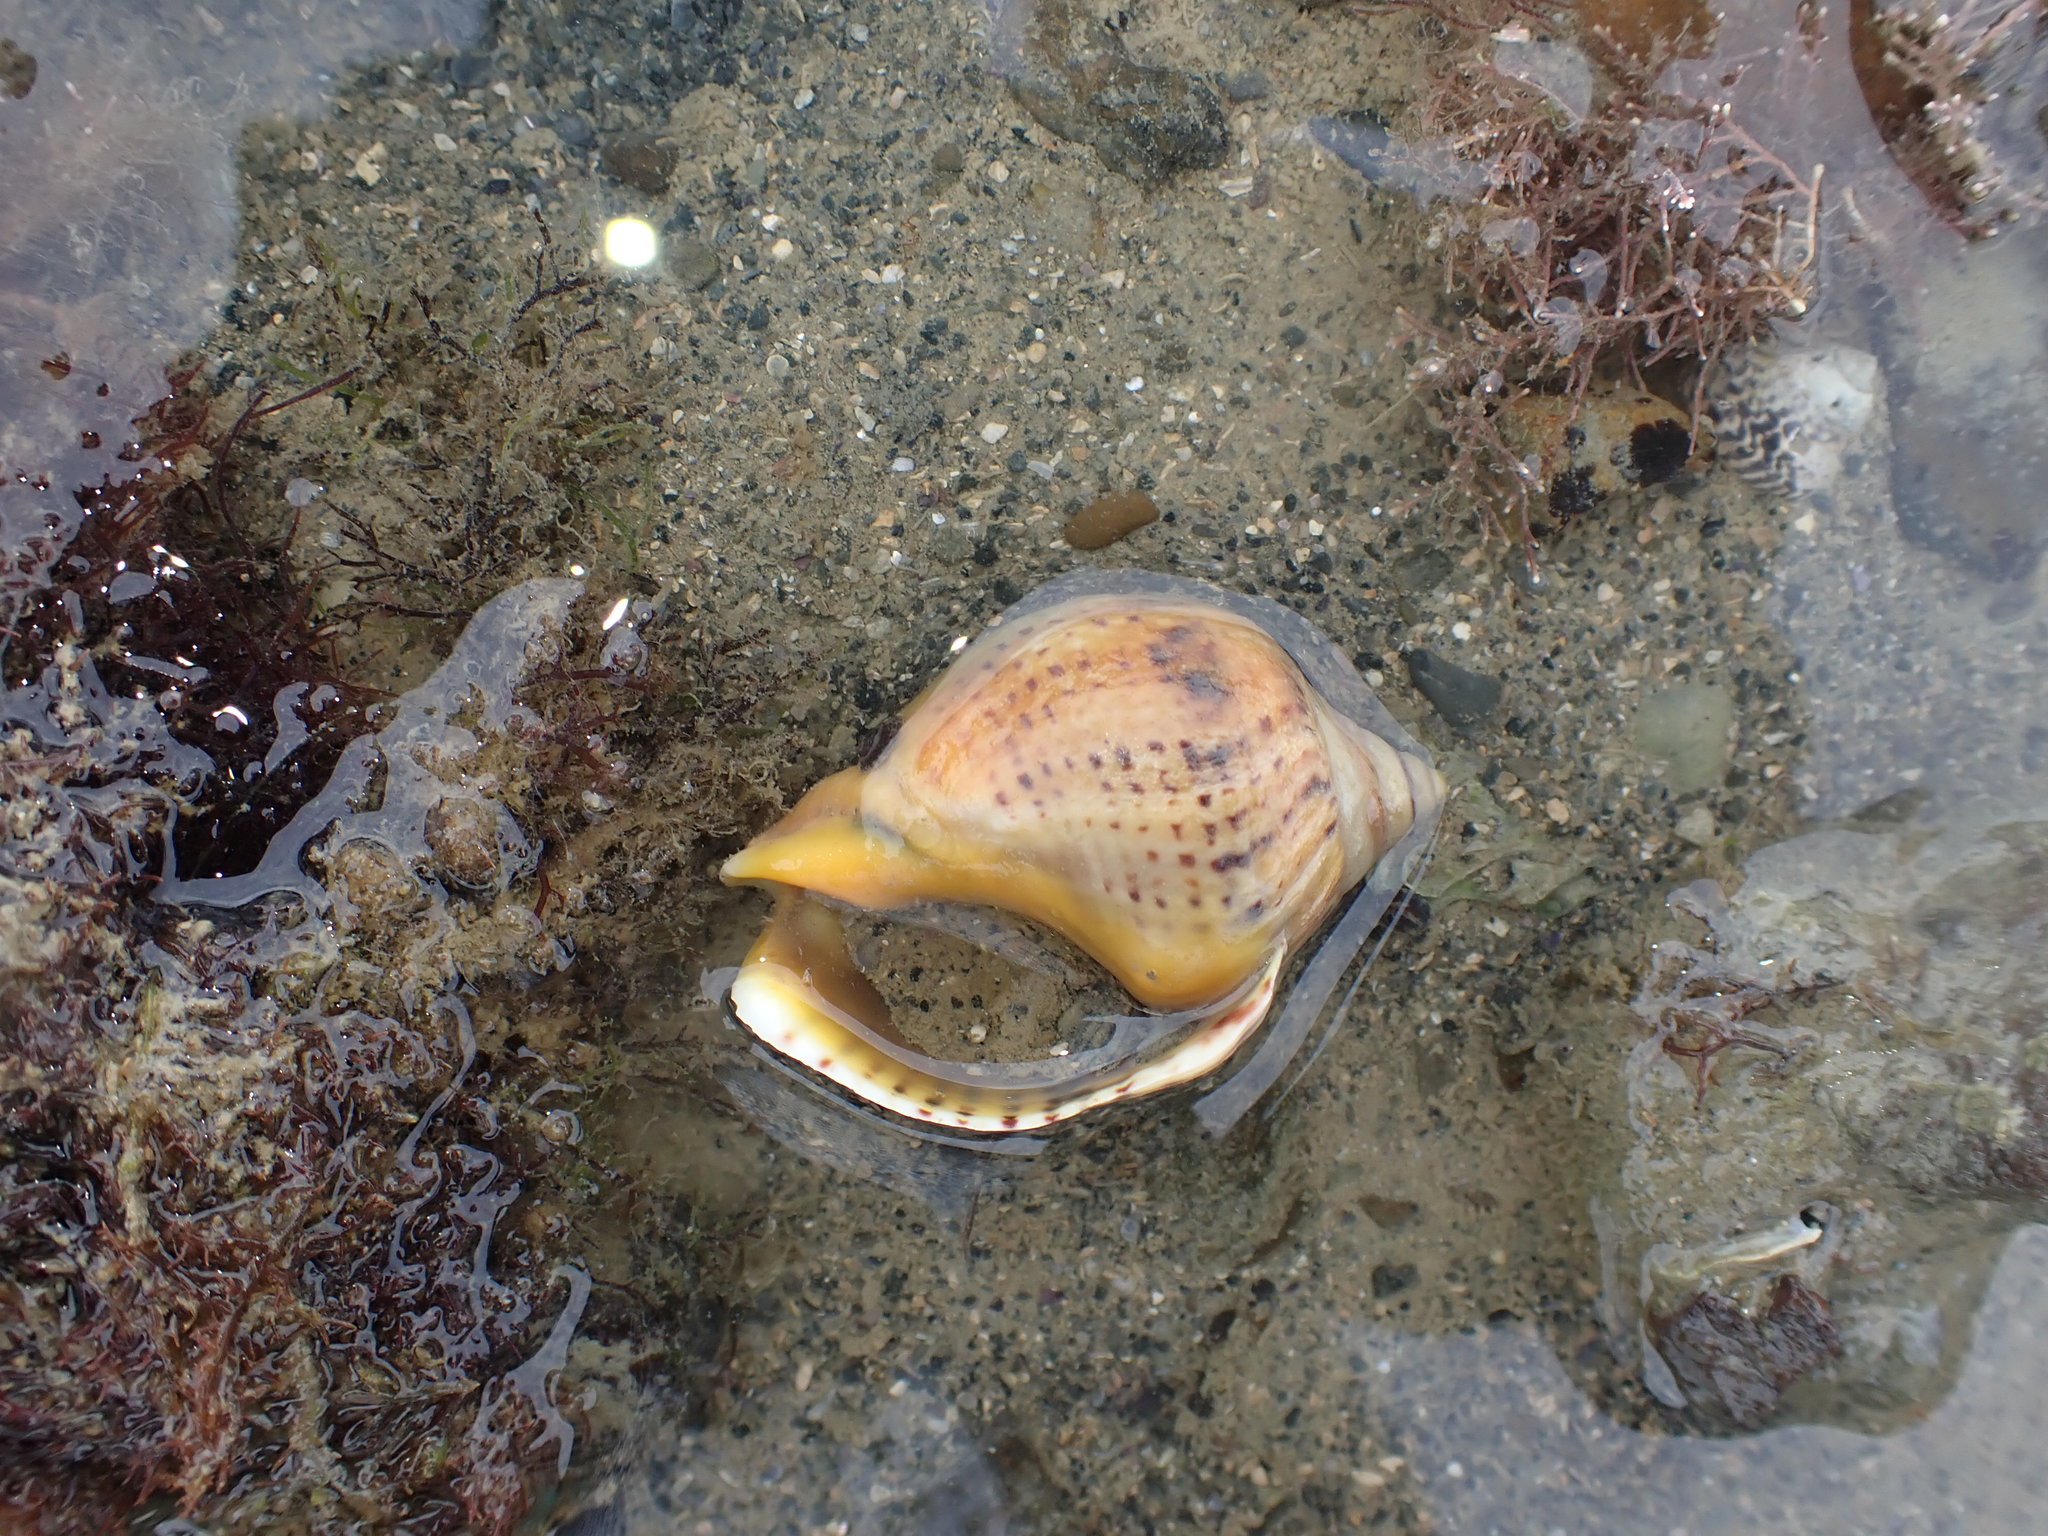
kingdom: Animalia
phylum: Mollusca
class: Gastropoda
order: Neogastropoda
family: Cominellidae
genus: Cominella
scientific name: Cominella adspersa
